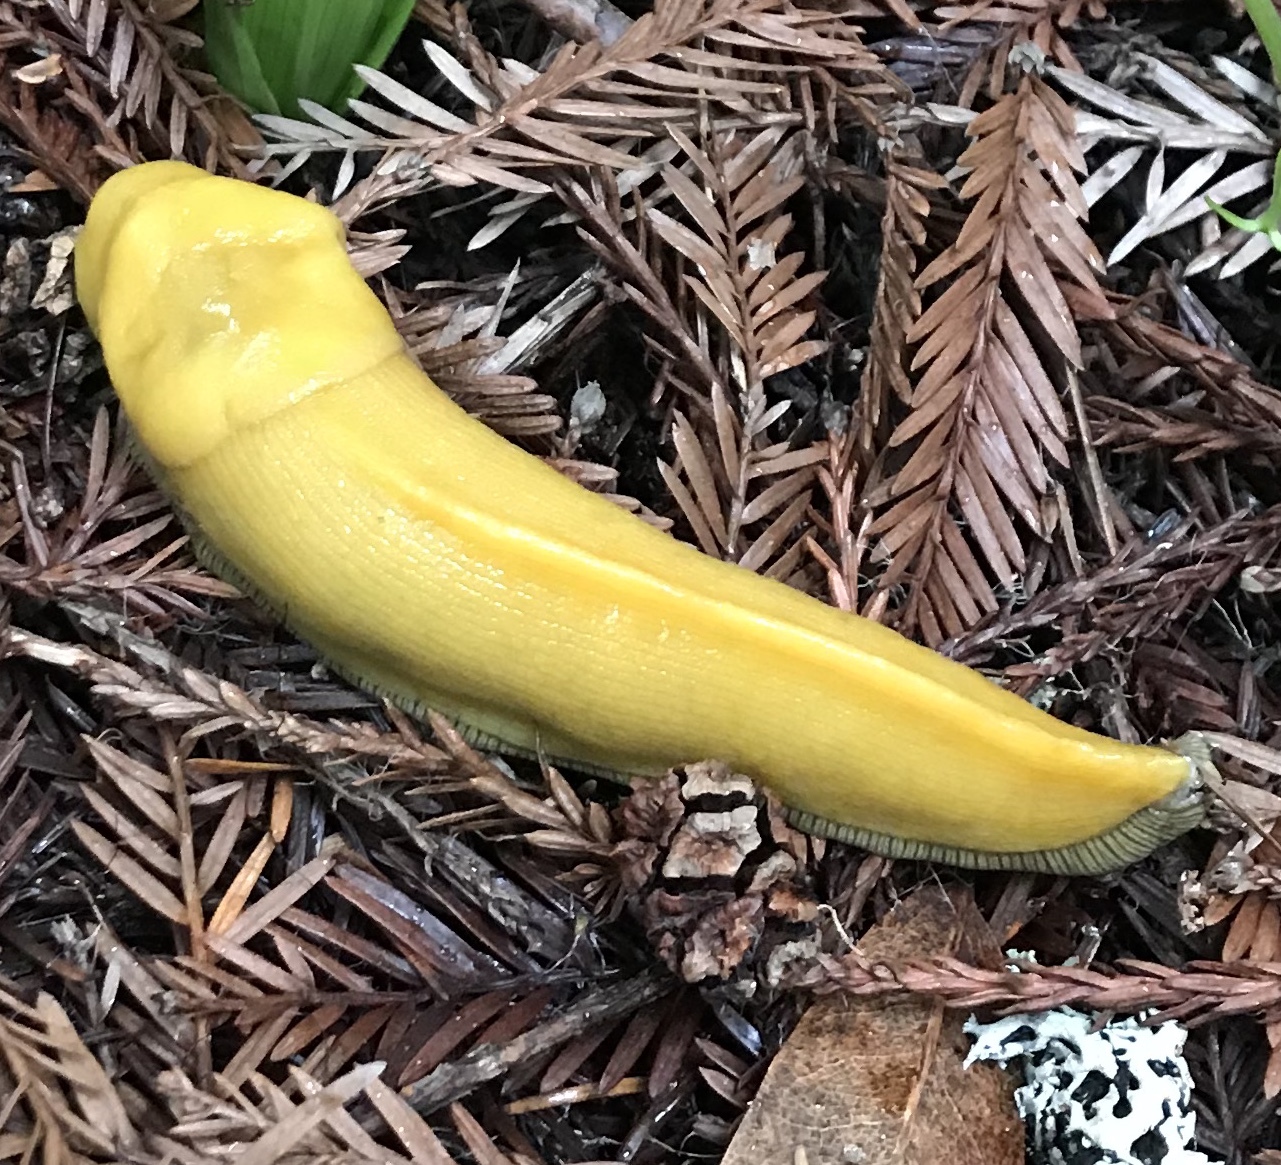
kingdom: Animalia
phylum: Mollusca
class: Gastropoda
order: Stylommatophora
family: Ariolimacidae
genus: Ariolimax
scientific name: Ariolimax californicus
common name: California banana slug
